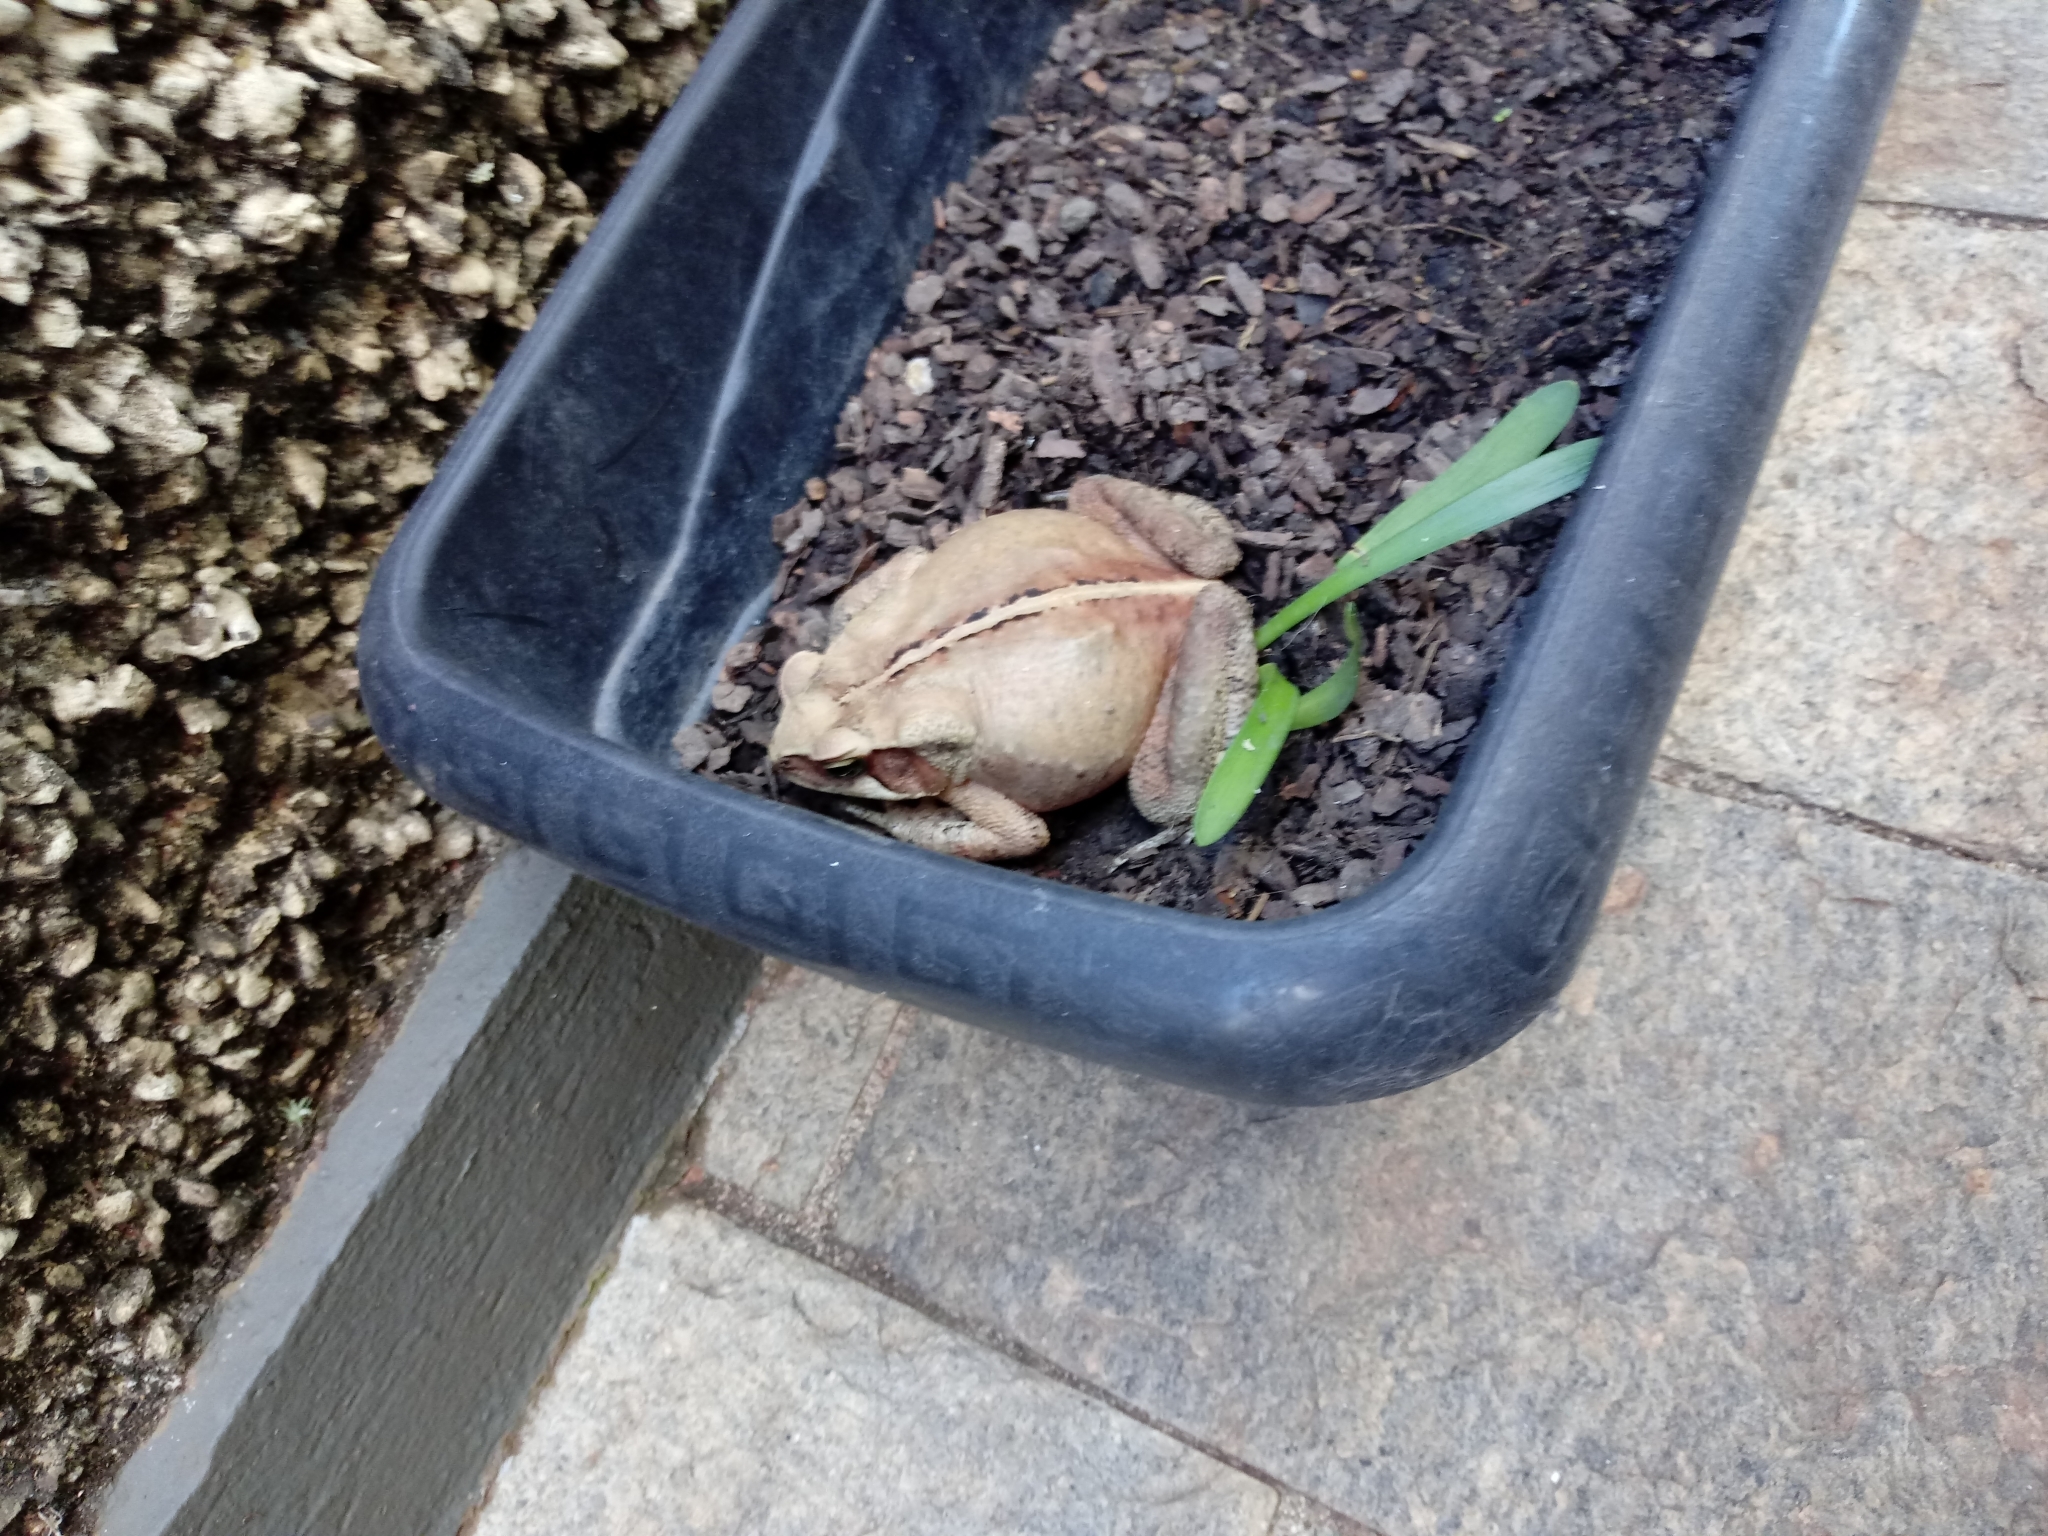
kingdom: Animalia
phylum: Chordata
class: Amphibia
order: Anura
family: Bufonidae
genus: Rhinella
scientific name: Rhinella ornata
